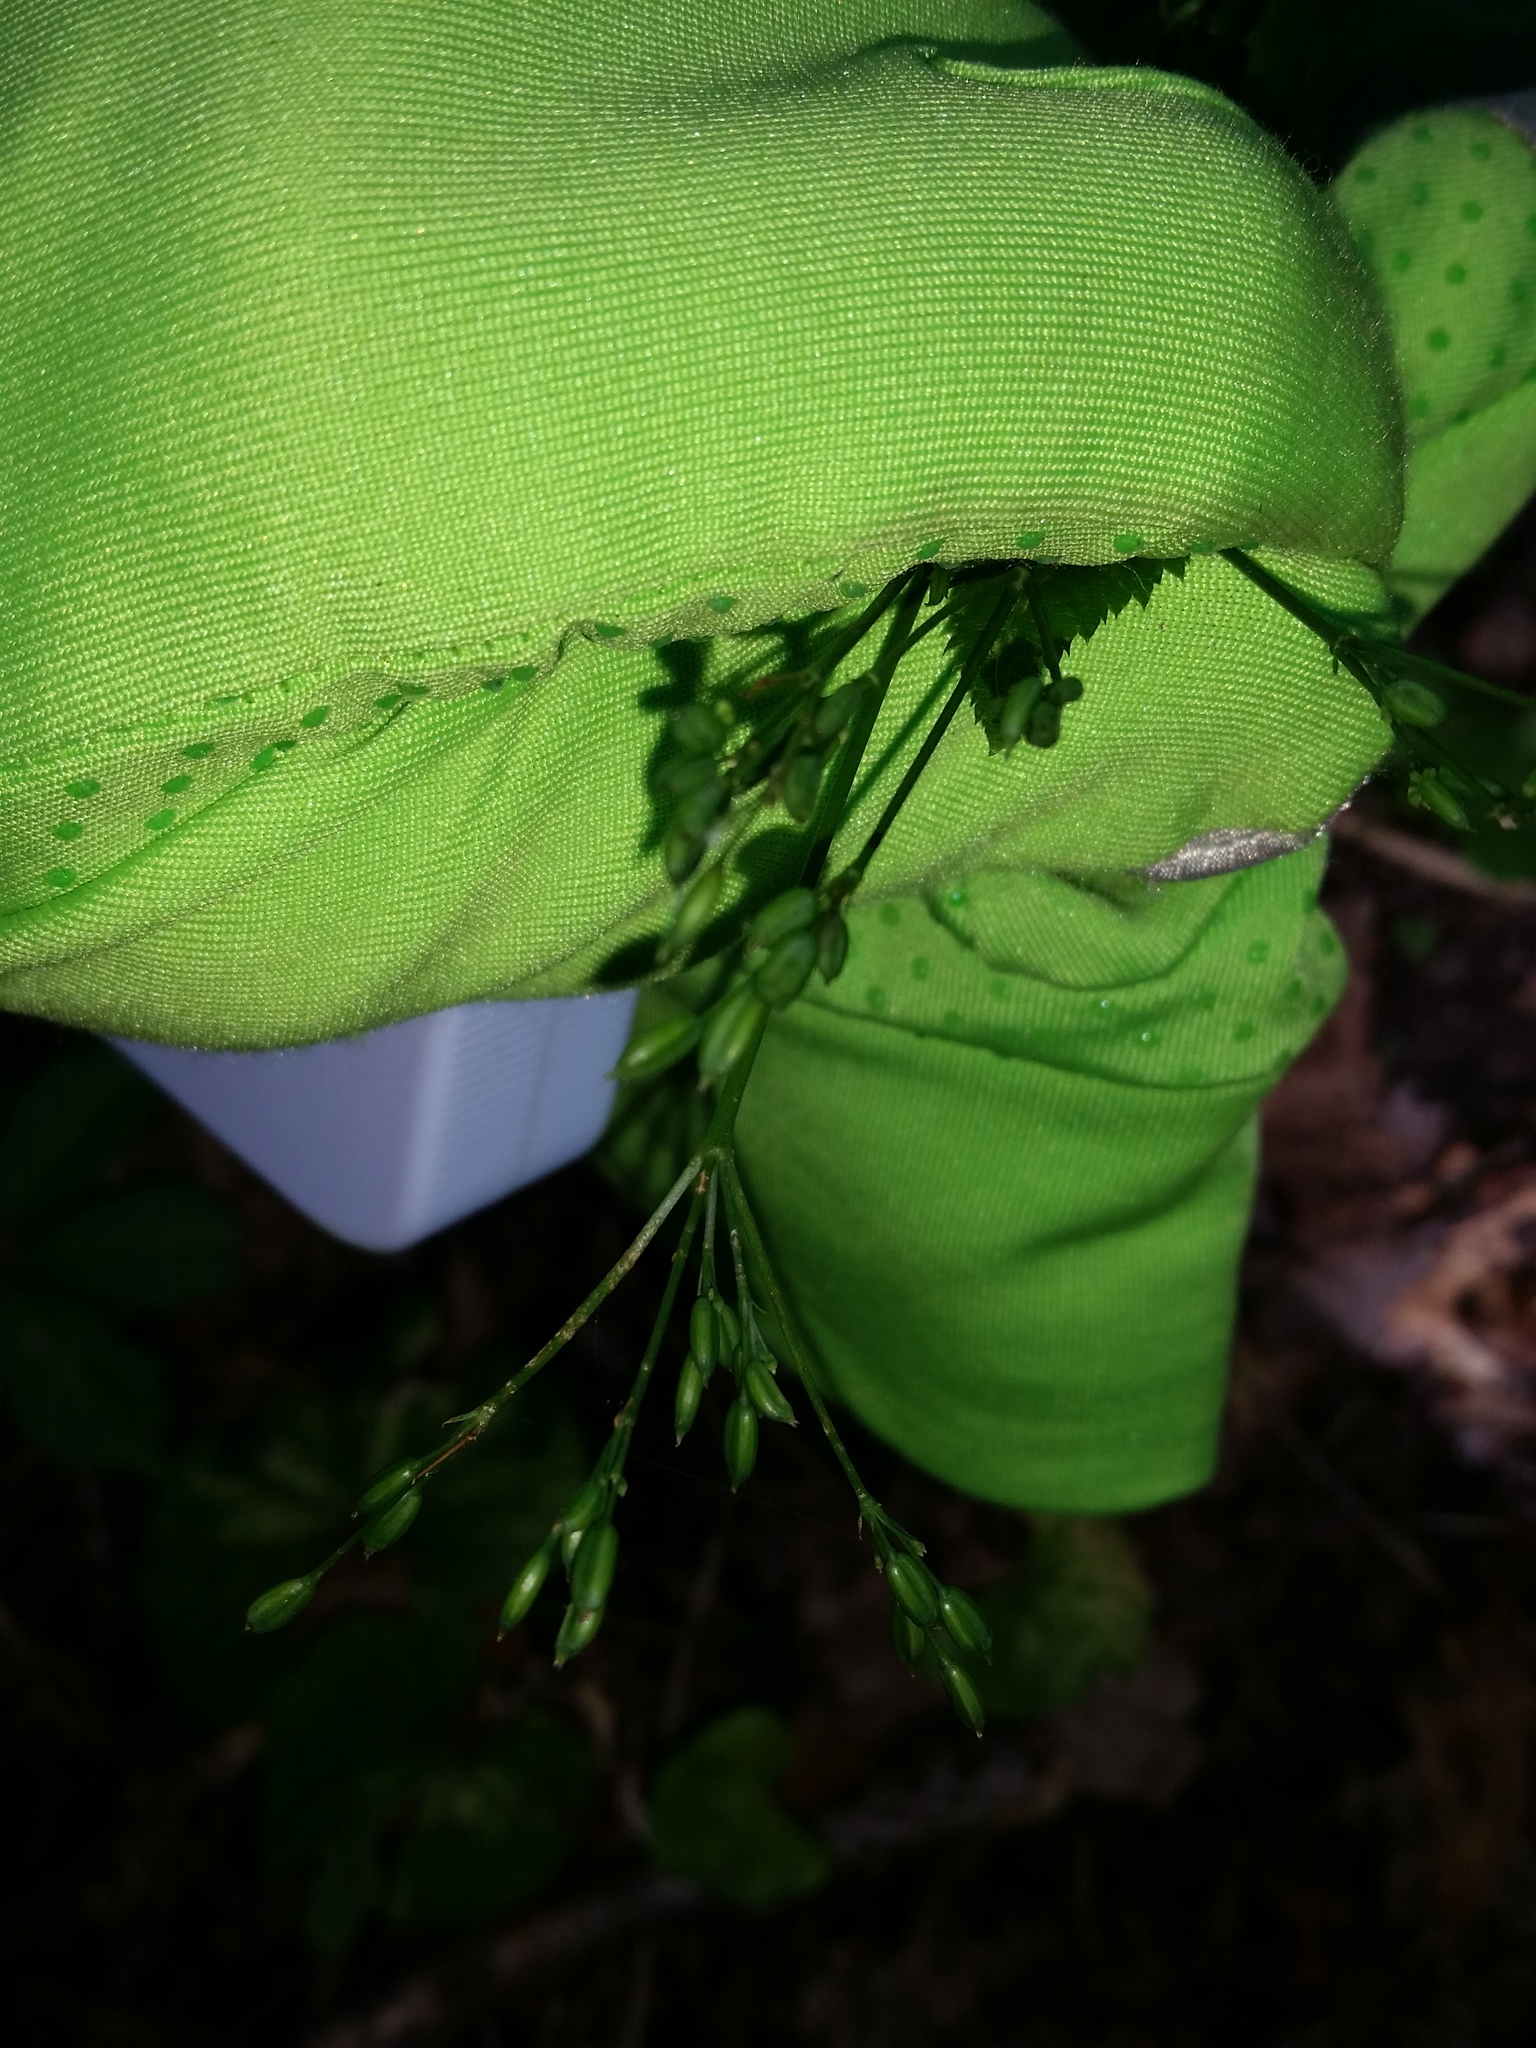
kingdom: Plantae
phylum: Tracheophyta
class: Magnoliopsida
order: Apiales
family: Apiaceae
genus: Cryptotaenia
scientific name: Cryptotaenia canadensis
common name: Honewort
